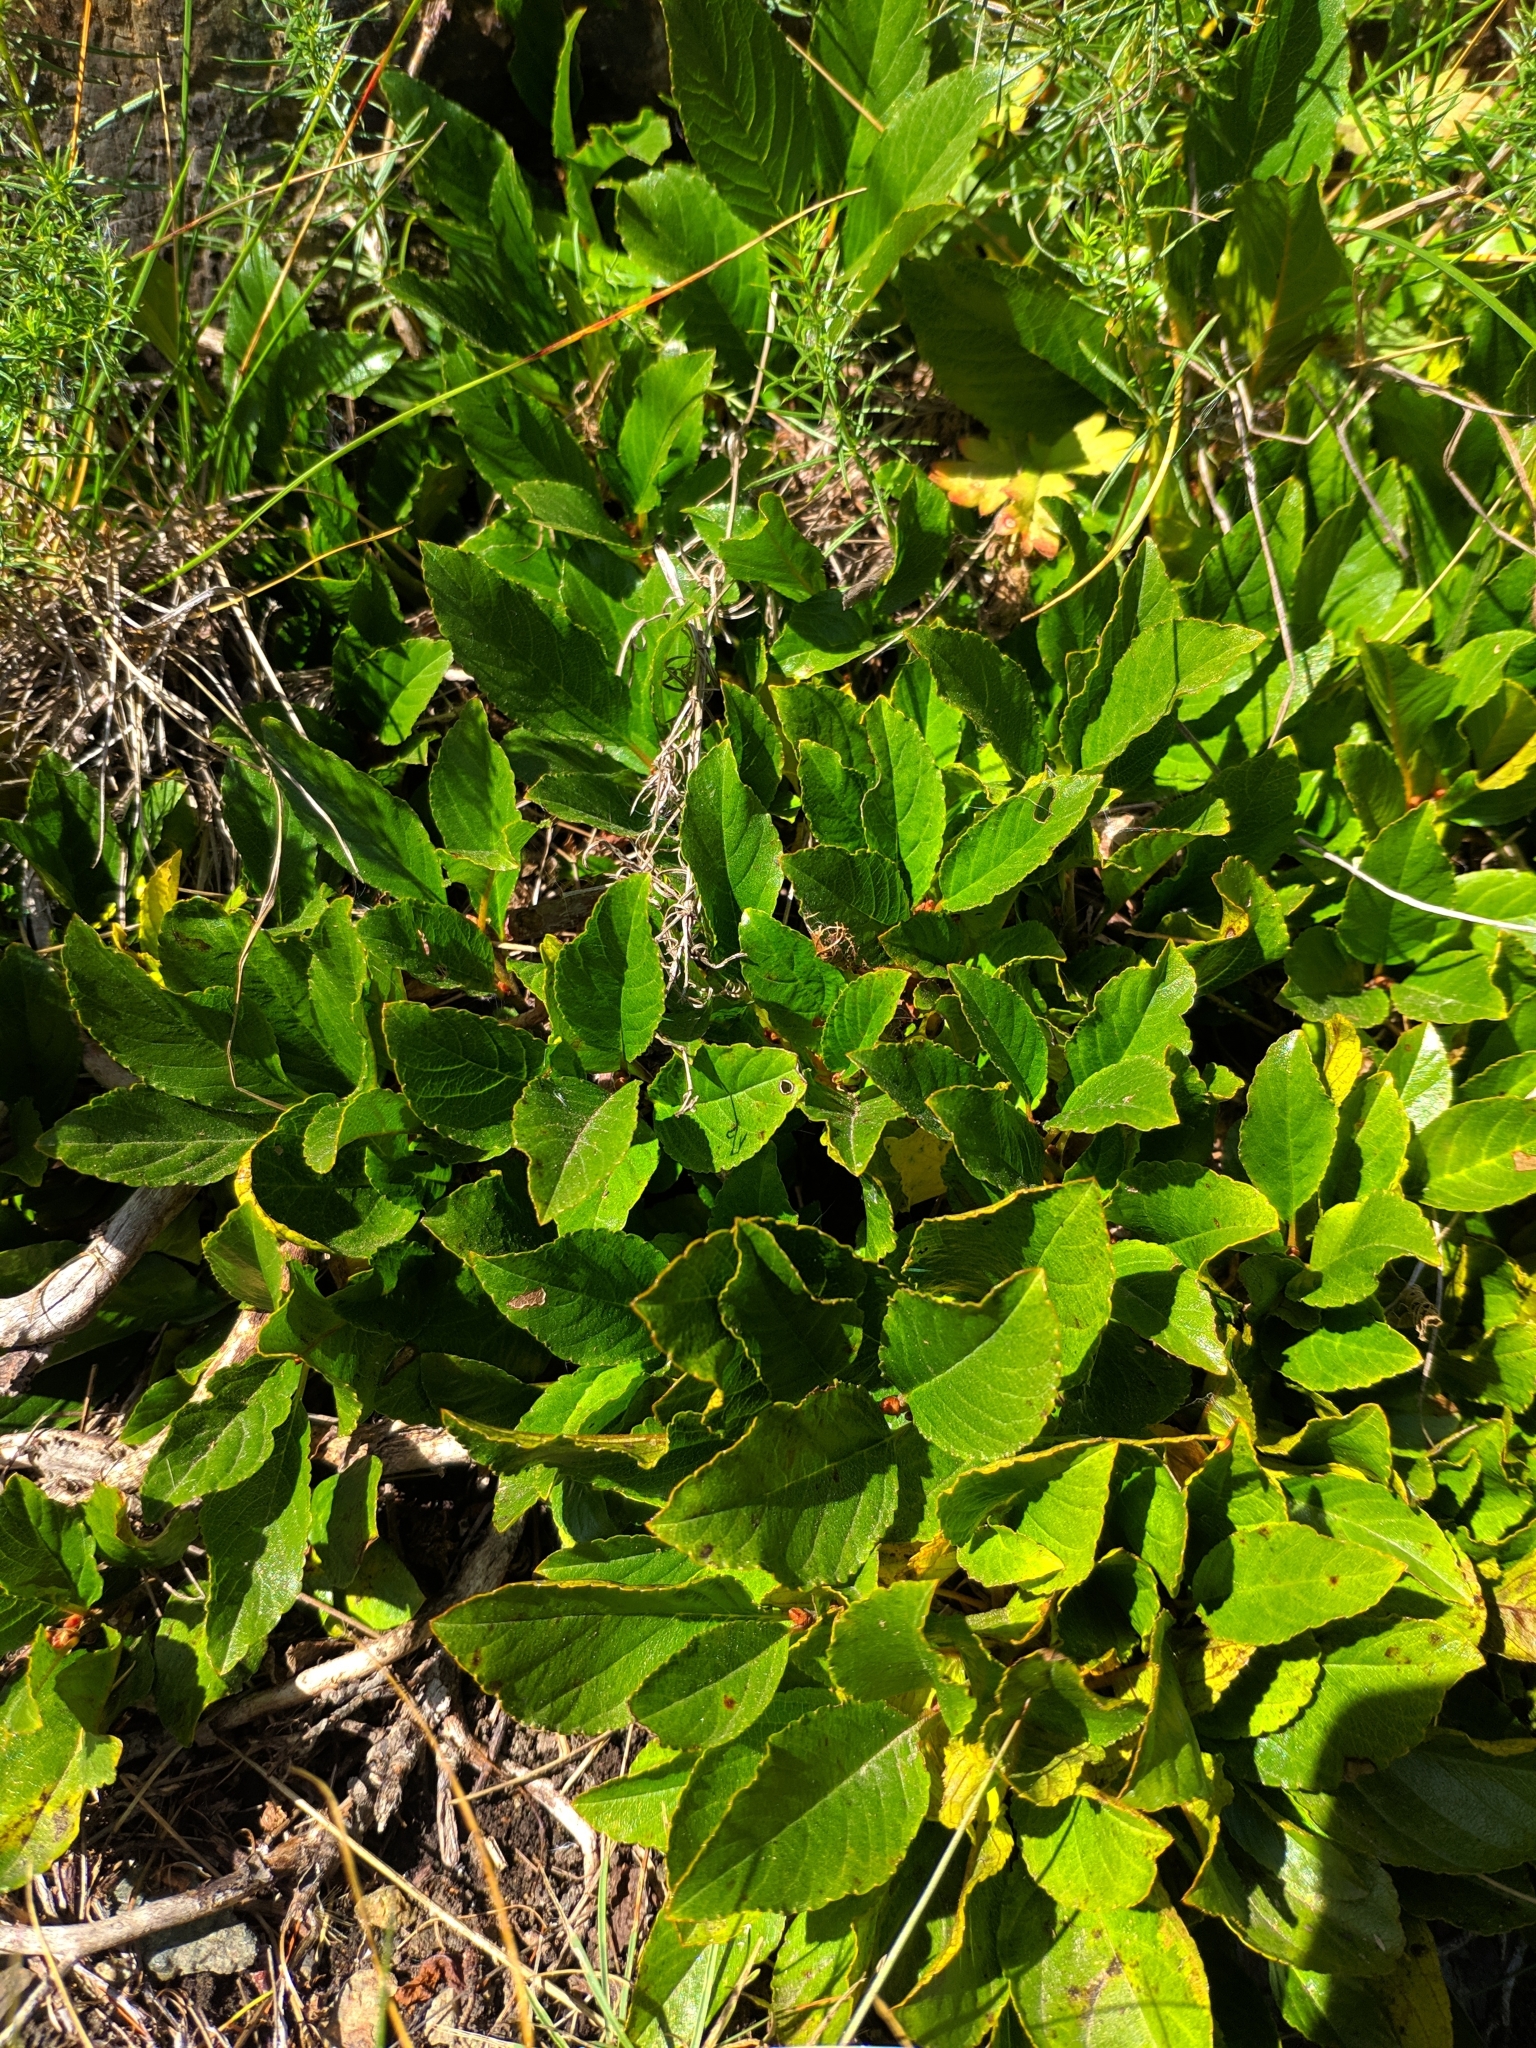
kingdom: Plantae
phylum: Tracheophyta
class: Magnoliopsida
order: Rosales
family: Rhamnaceae
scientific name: Rhamnaceae
